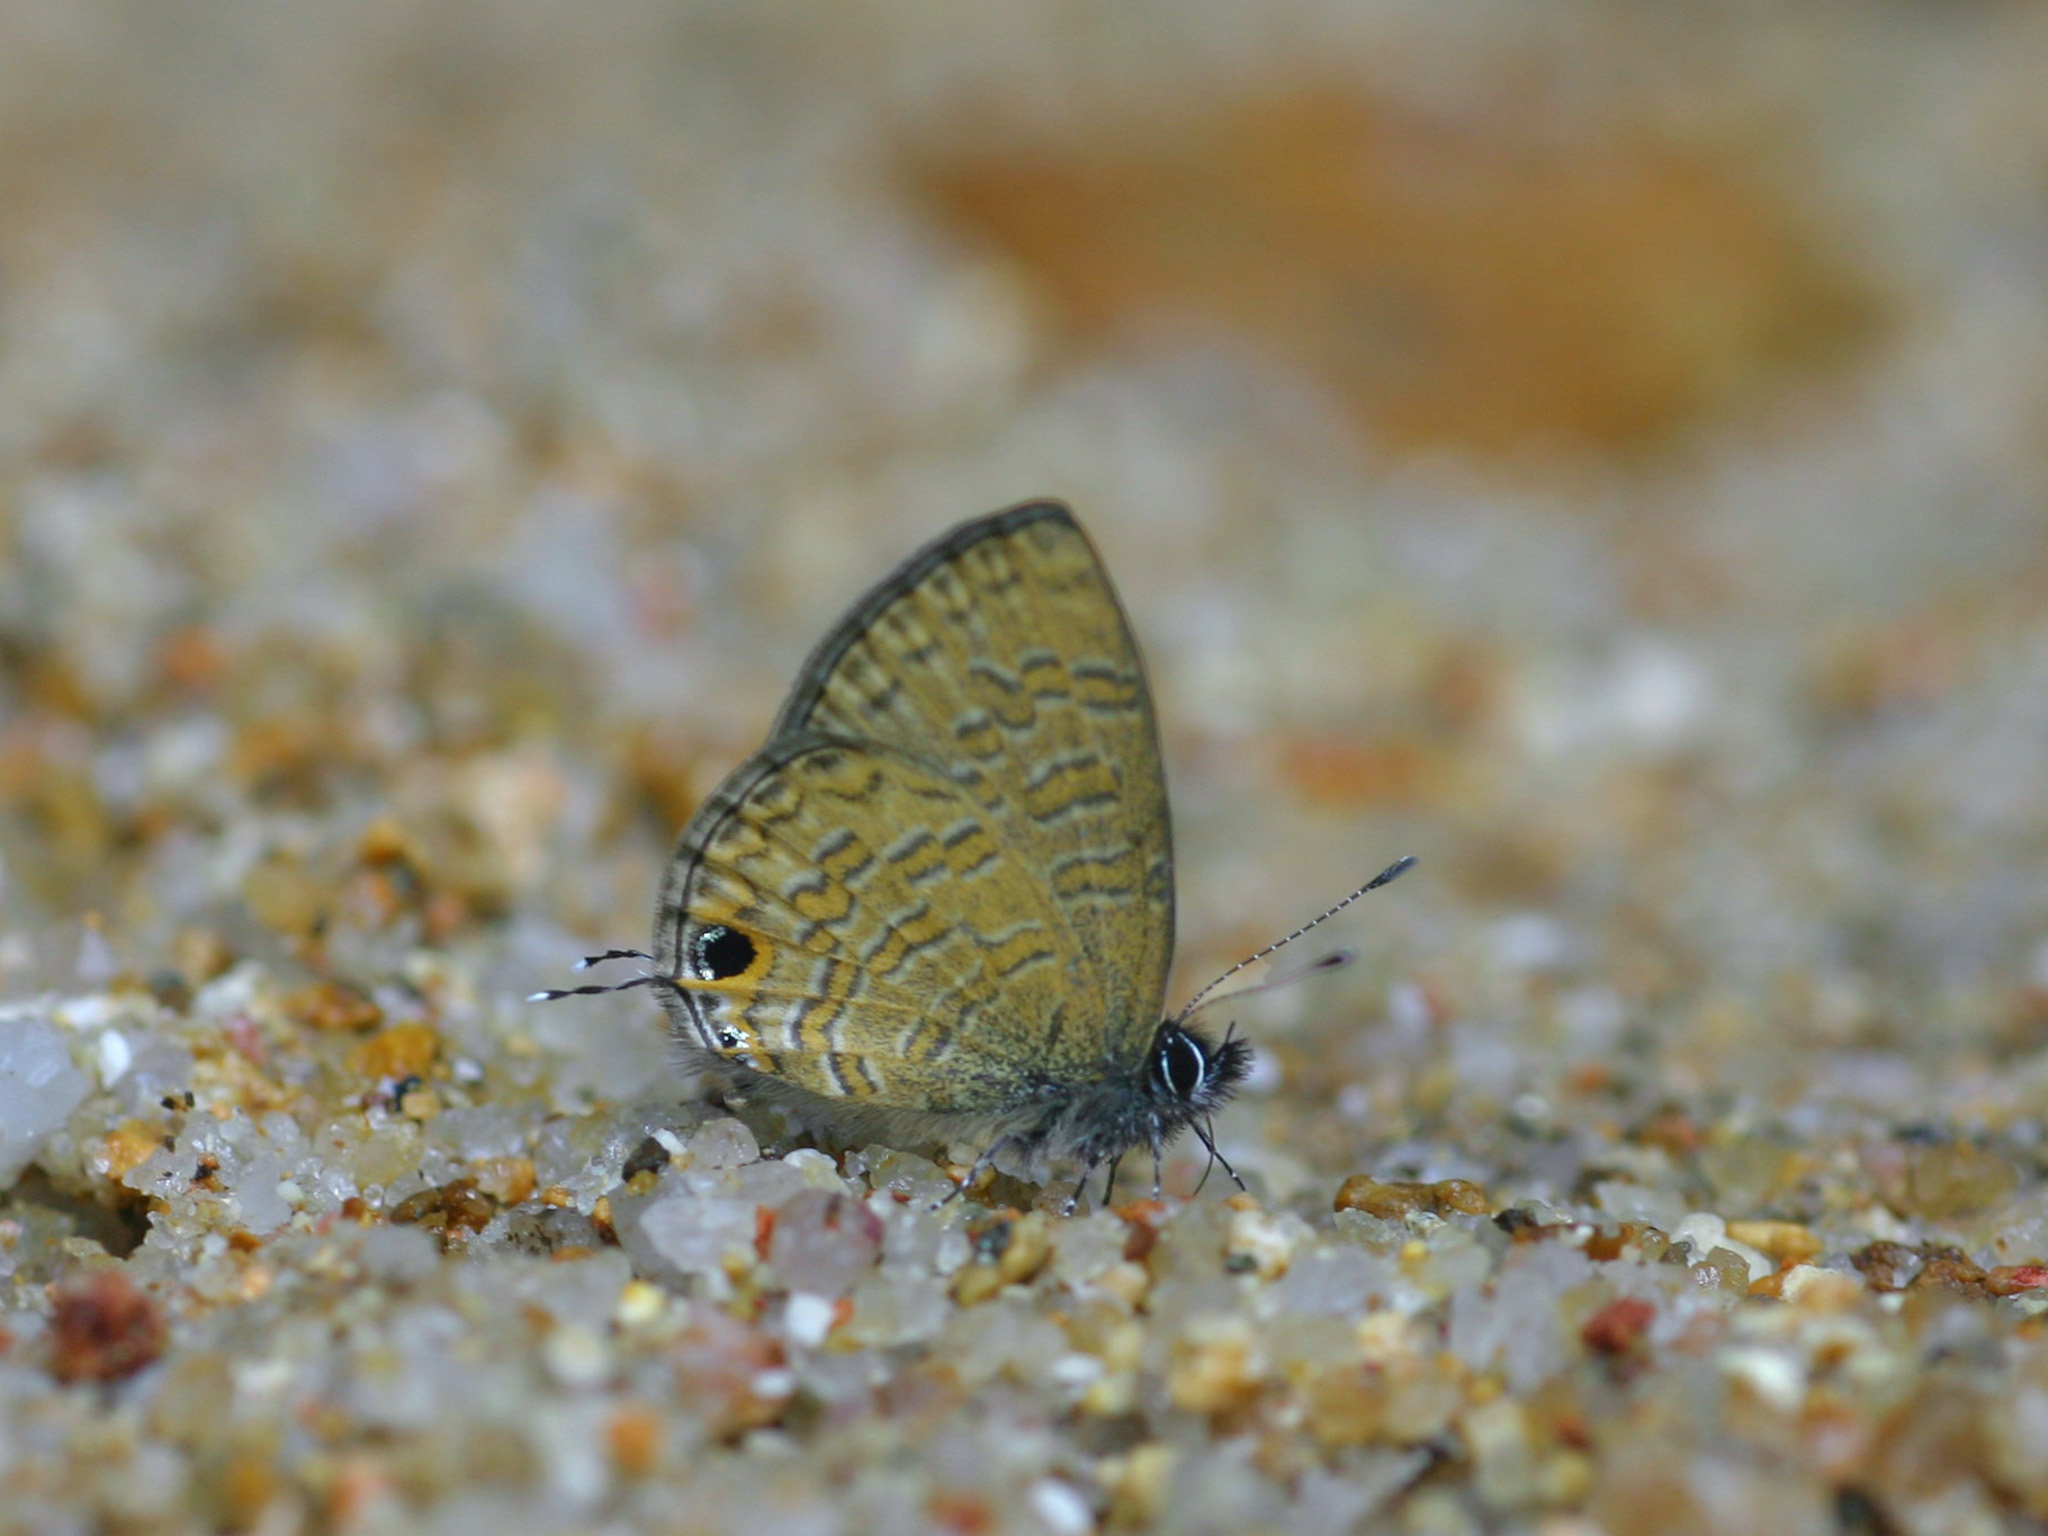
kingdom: Animalia
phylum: Arthropoda
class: Insecta
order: Lepidoptera
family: Lycaenidae
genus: Prosotas
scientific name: Prosotas nora
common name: Common line blue
